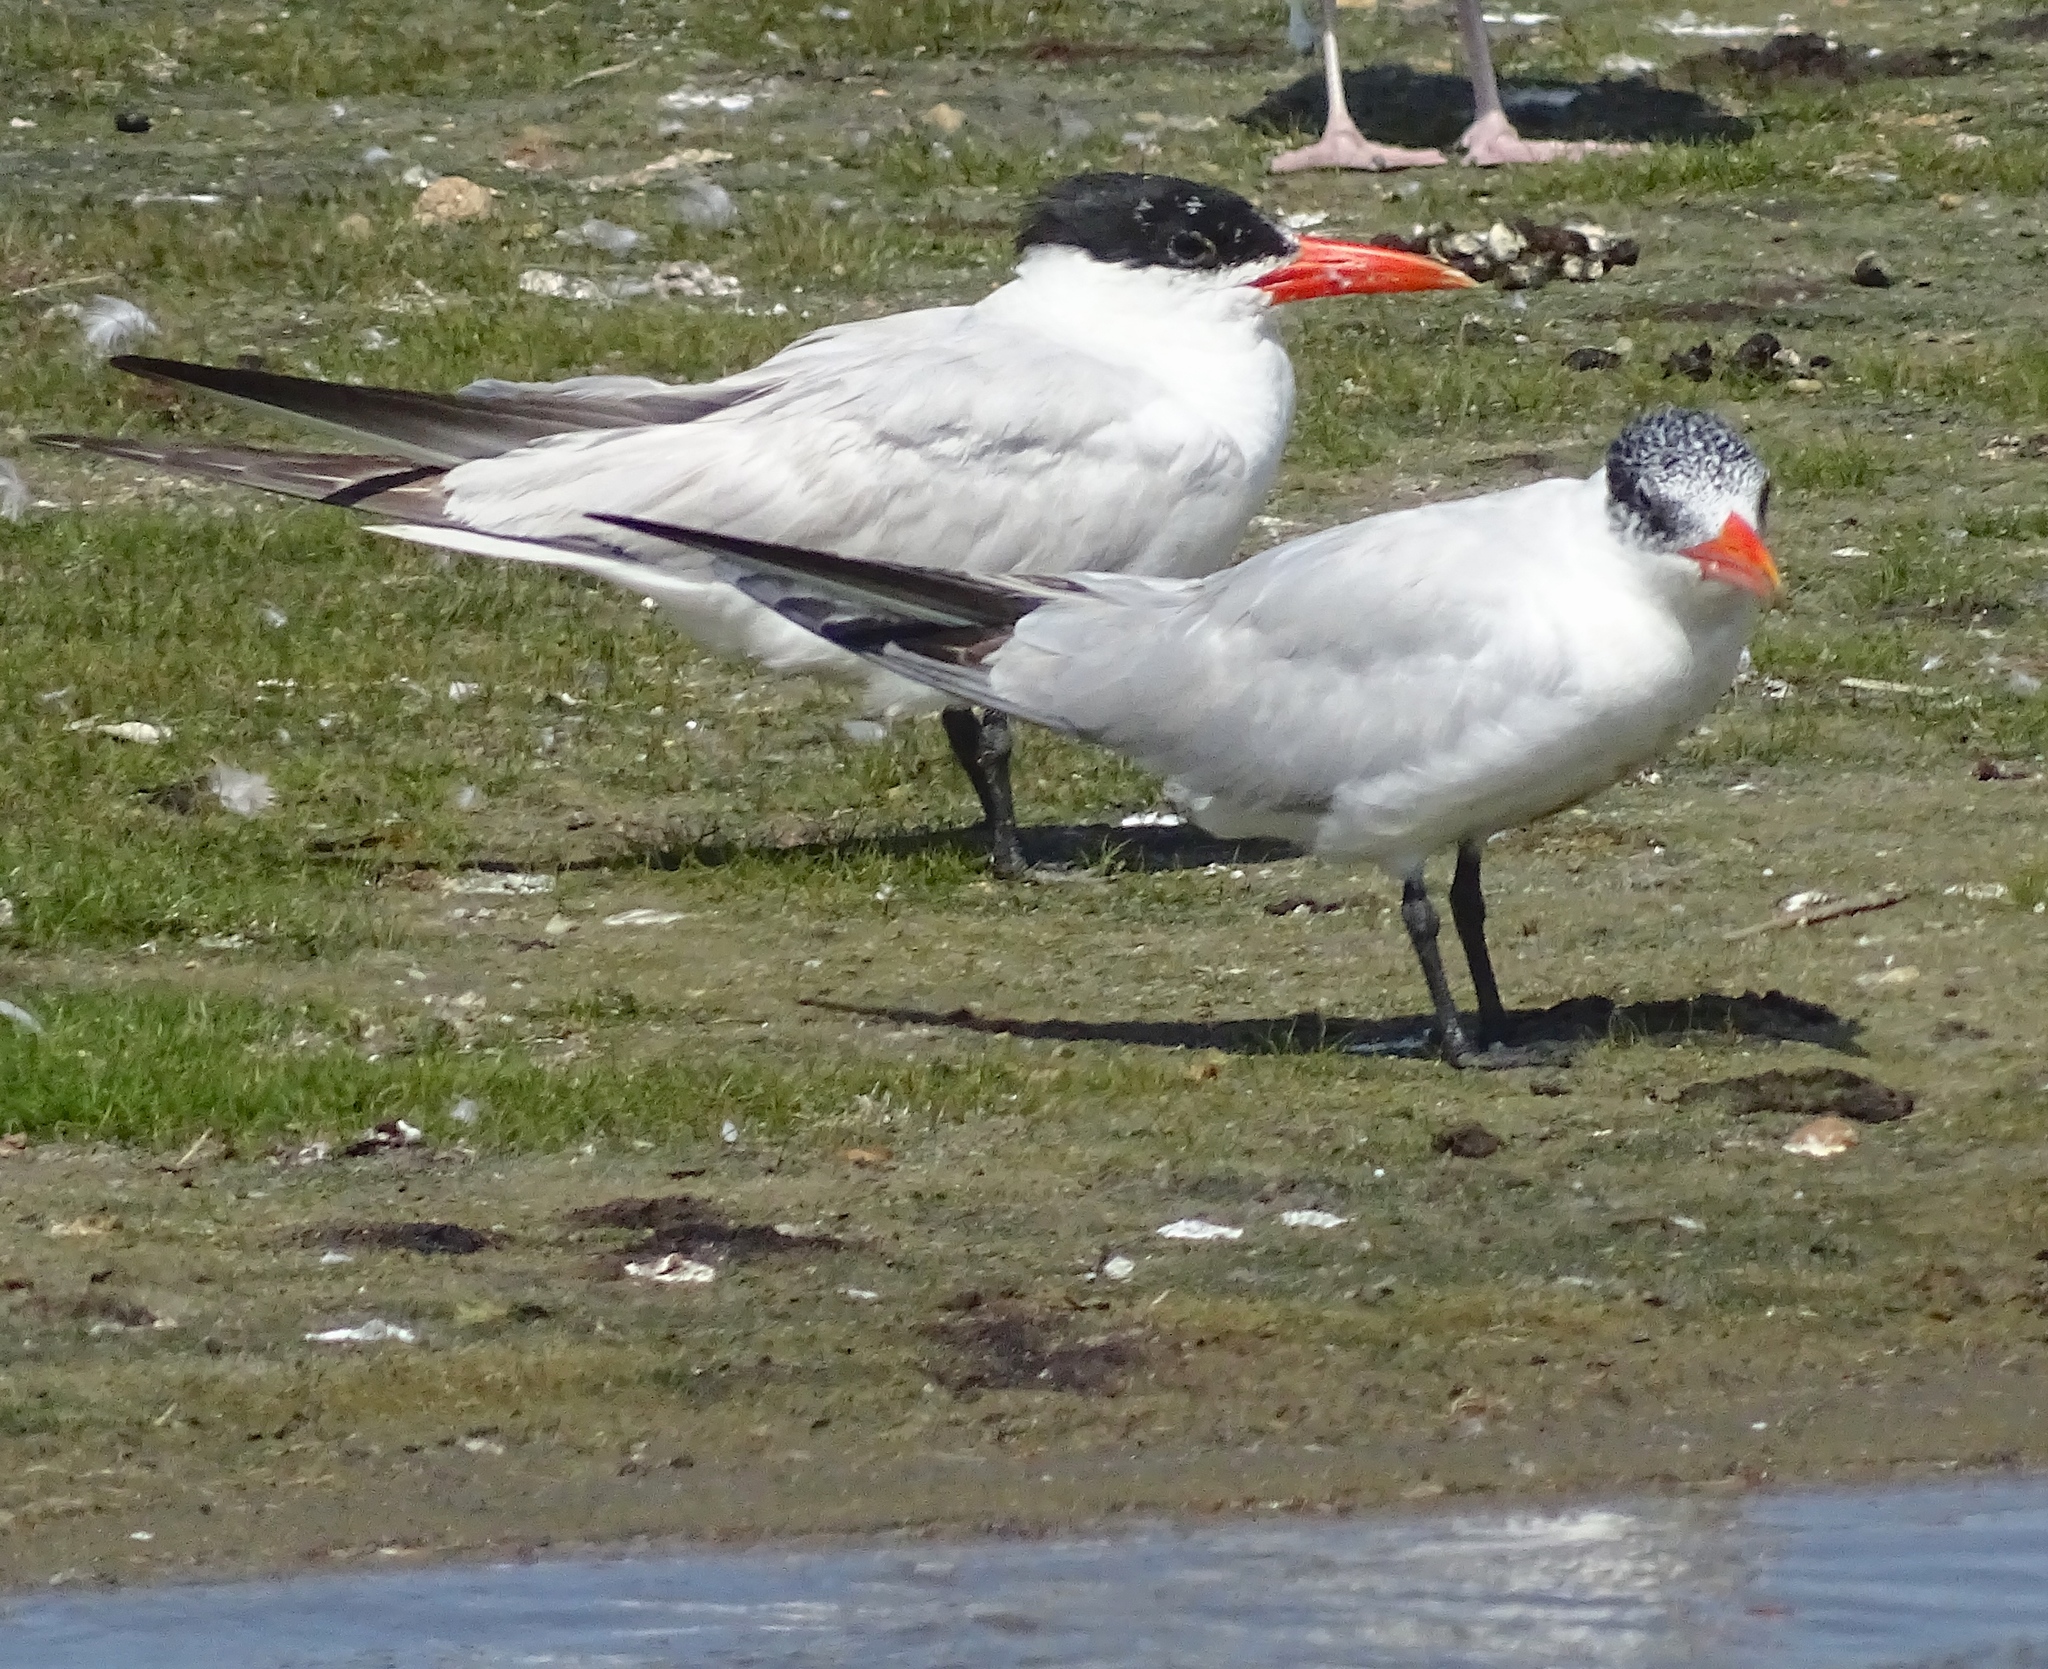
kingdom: Animalia
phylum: Chordata
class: Aves
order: Charadriiformes
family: Laridae
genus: Hydroprogne
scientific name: Hydroprogne caspia
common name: Caspian tern
